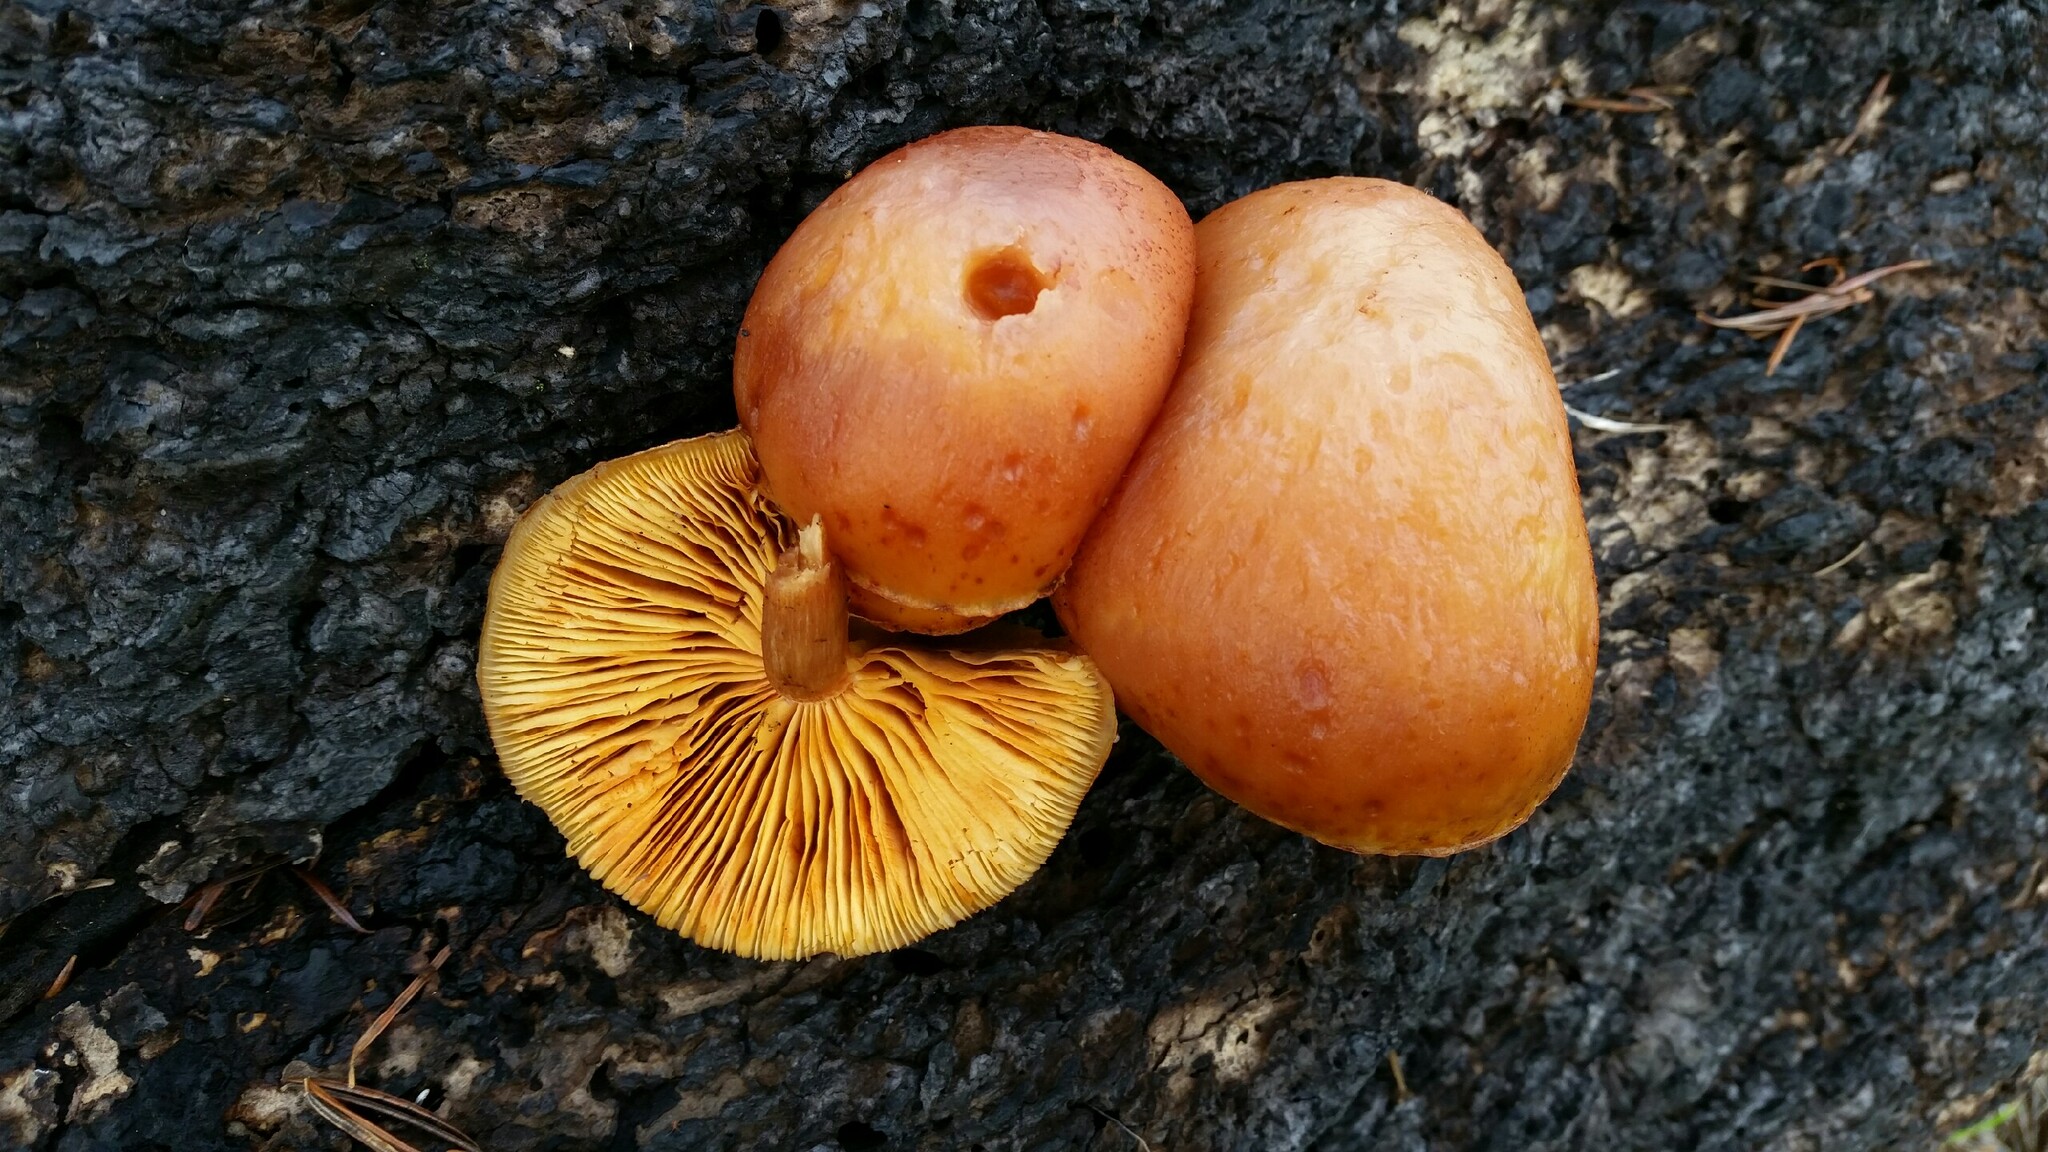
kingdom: Fungi
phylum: Basidiomycota
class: Agaricomycetes
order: Agaricales
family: Hymenogastraceae
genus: Gymnopilus
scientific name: Gymnopilus aurantiophyllus
